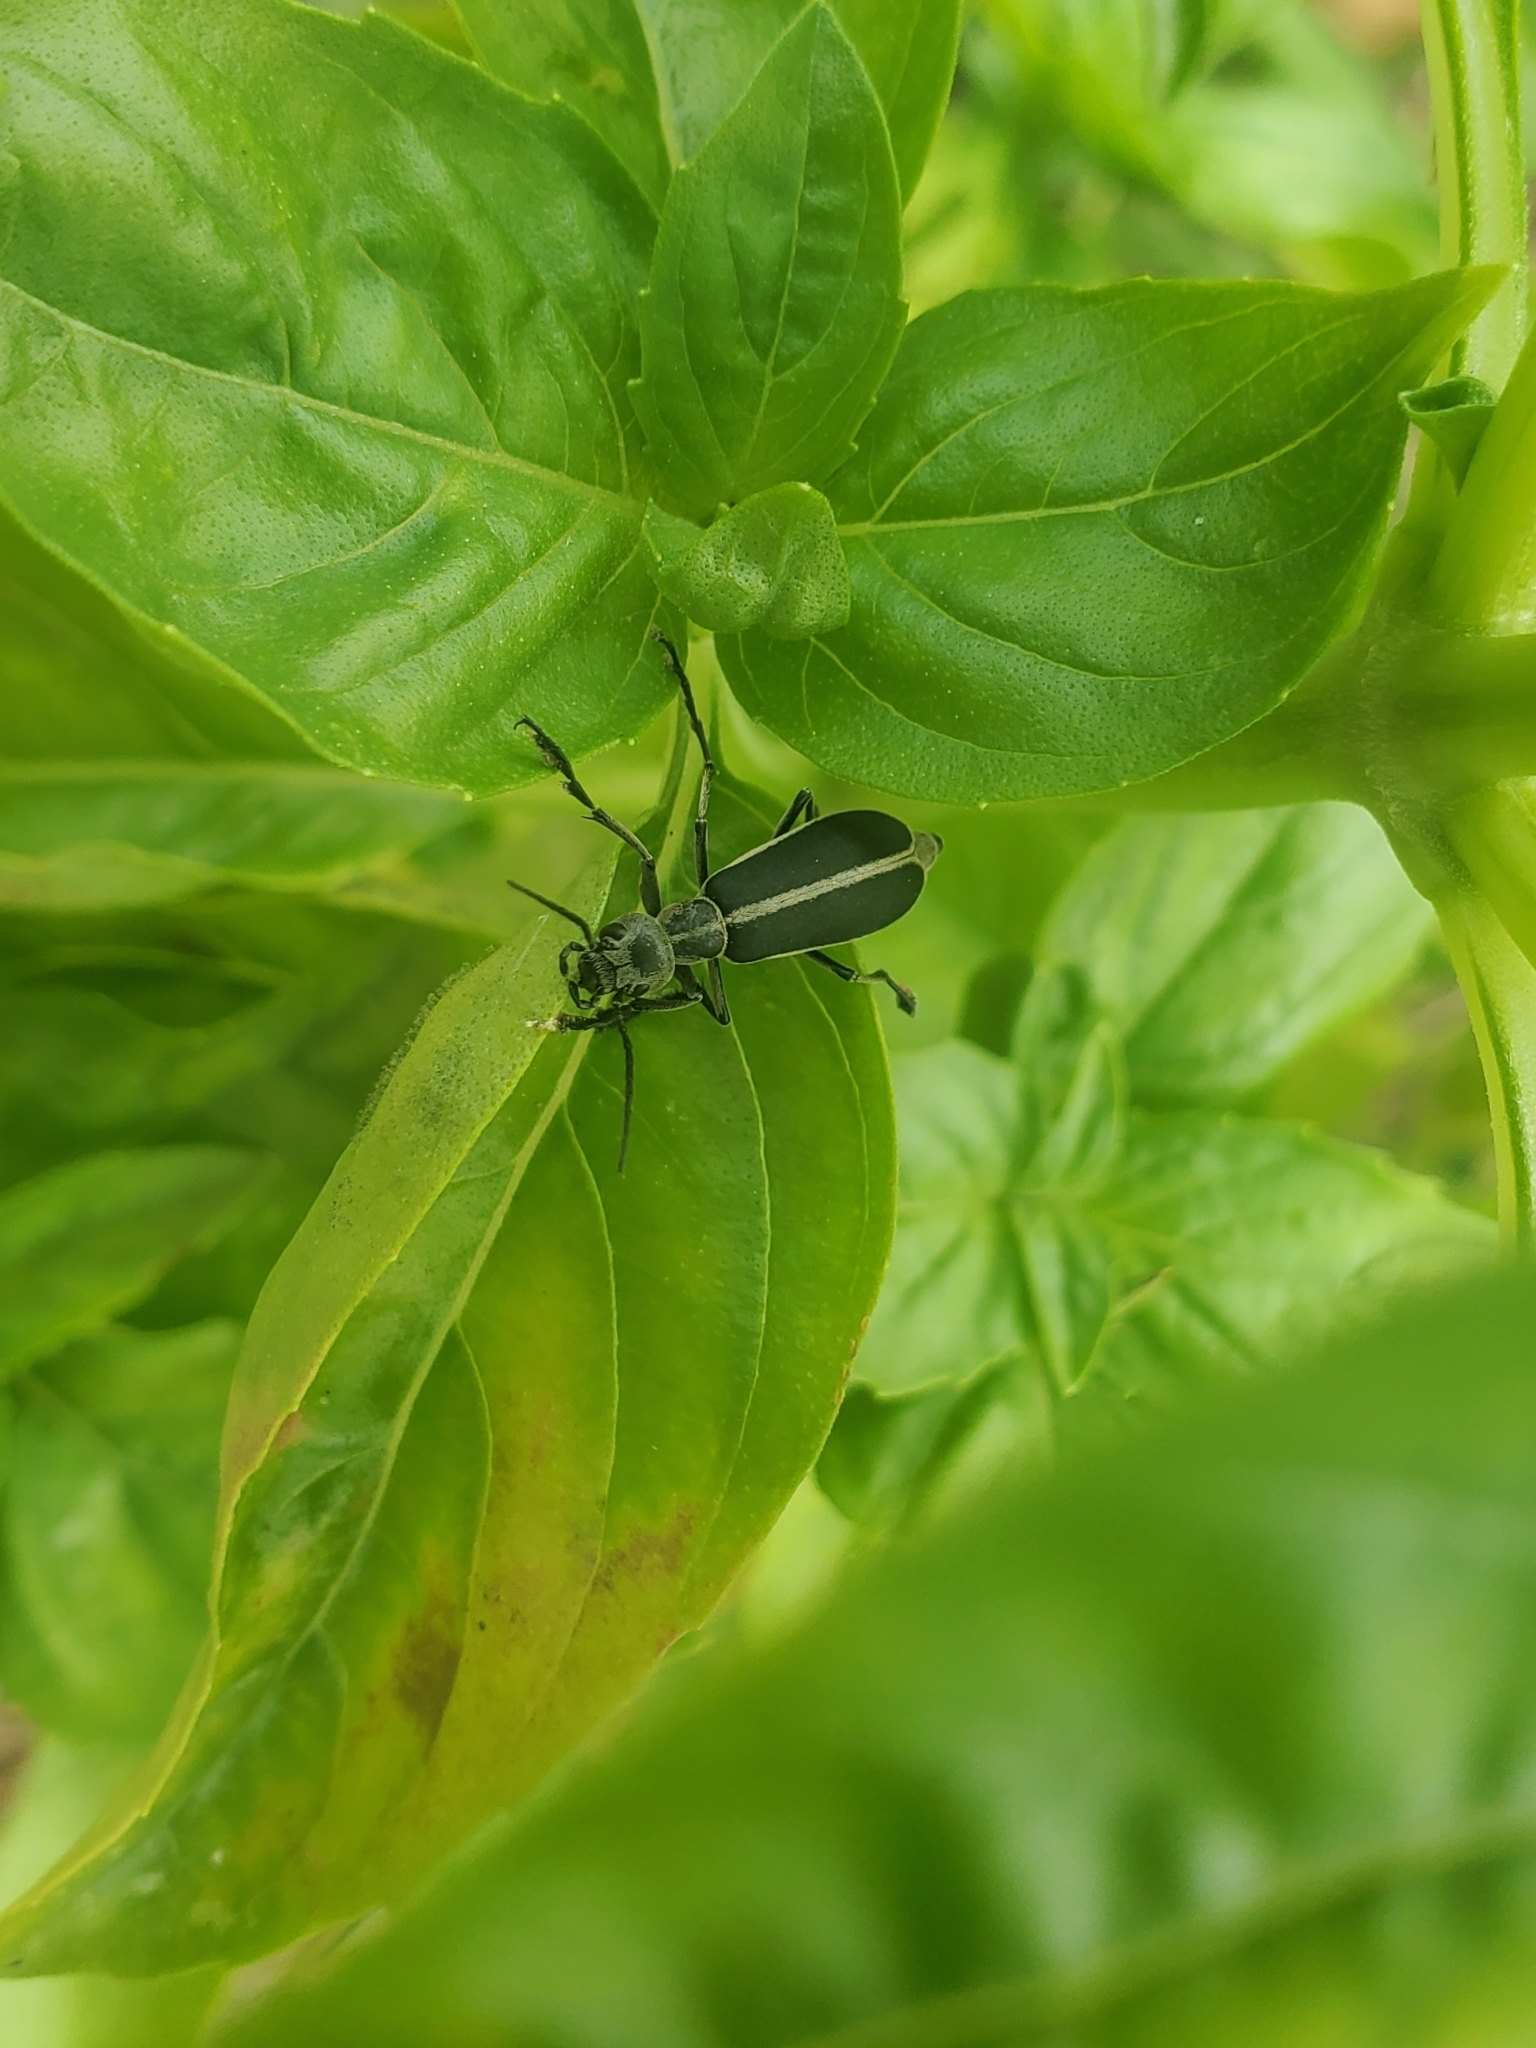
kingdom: Animalia
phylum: Arthropoda
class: Insecta
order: Coleoptera
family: Meloidae
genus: Epicauta
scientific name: Epicauta funebris
